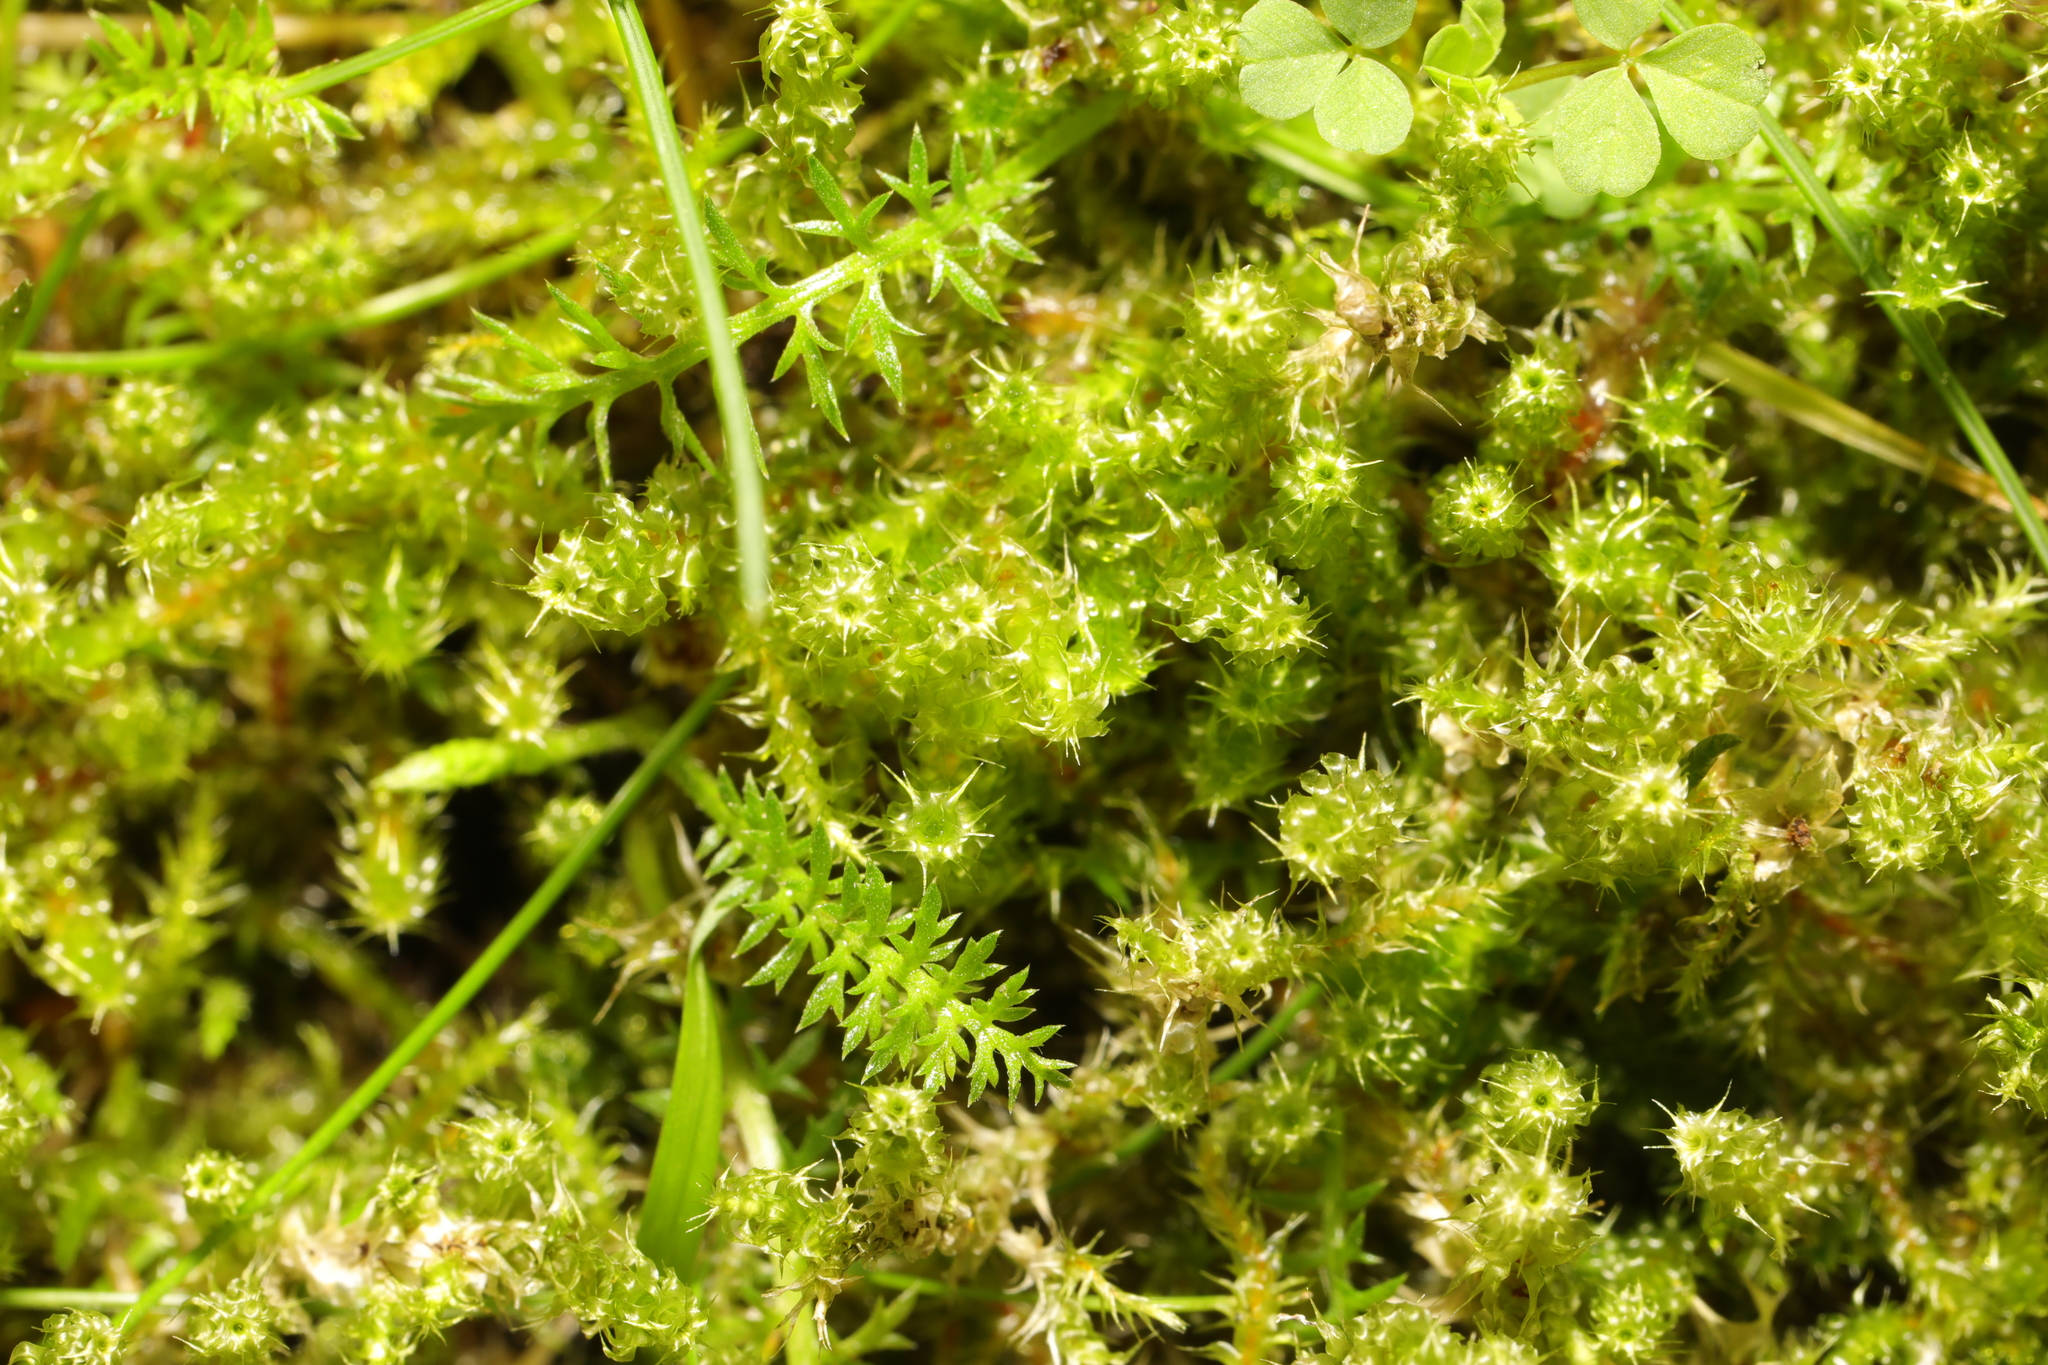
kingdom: Plantae
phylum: Bryophyta
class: Bryopsida
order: Hypnales
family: Hylocomiaceae
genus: Rhytidiadelphus
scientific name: Rhytidiadelphus squarrosus
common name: Springy turf-moss
